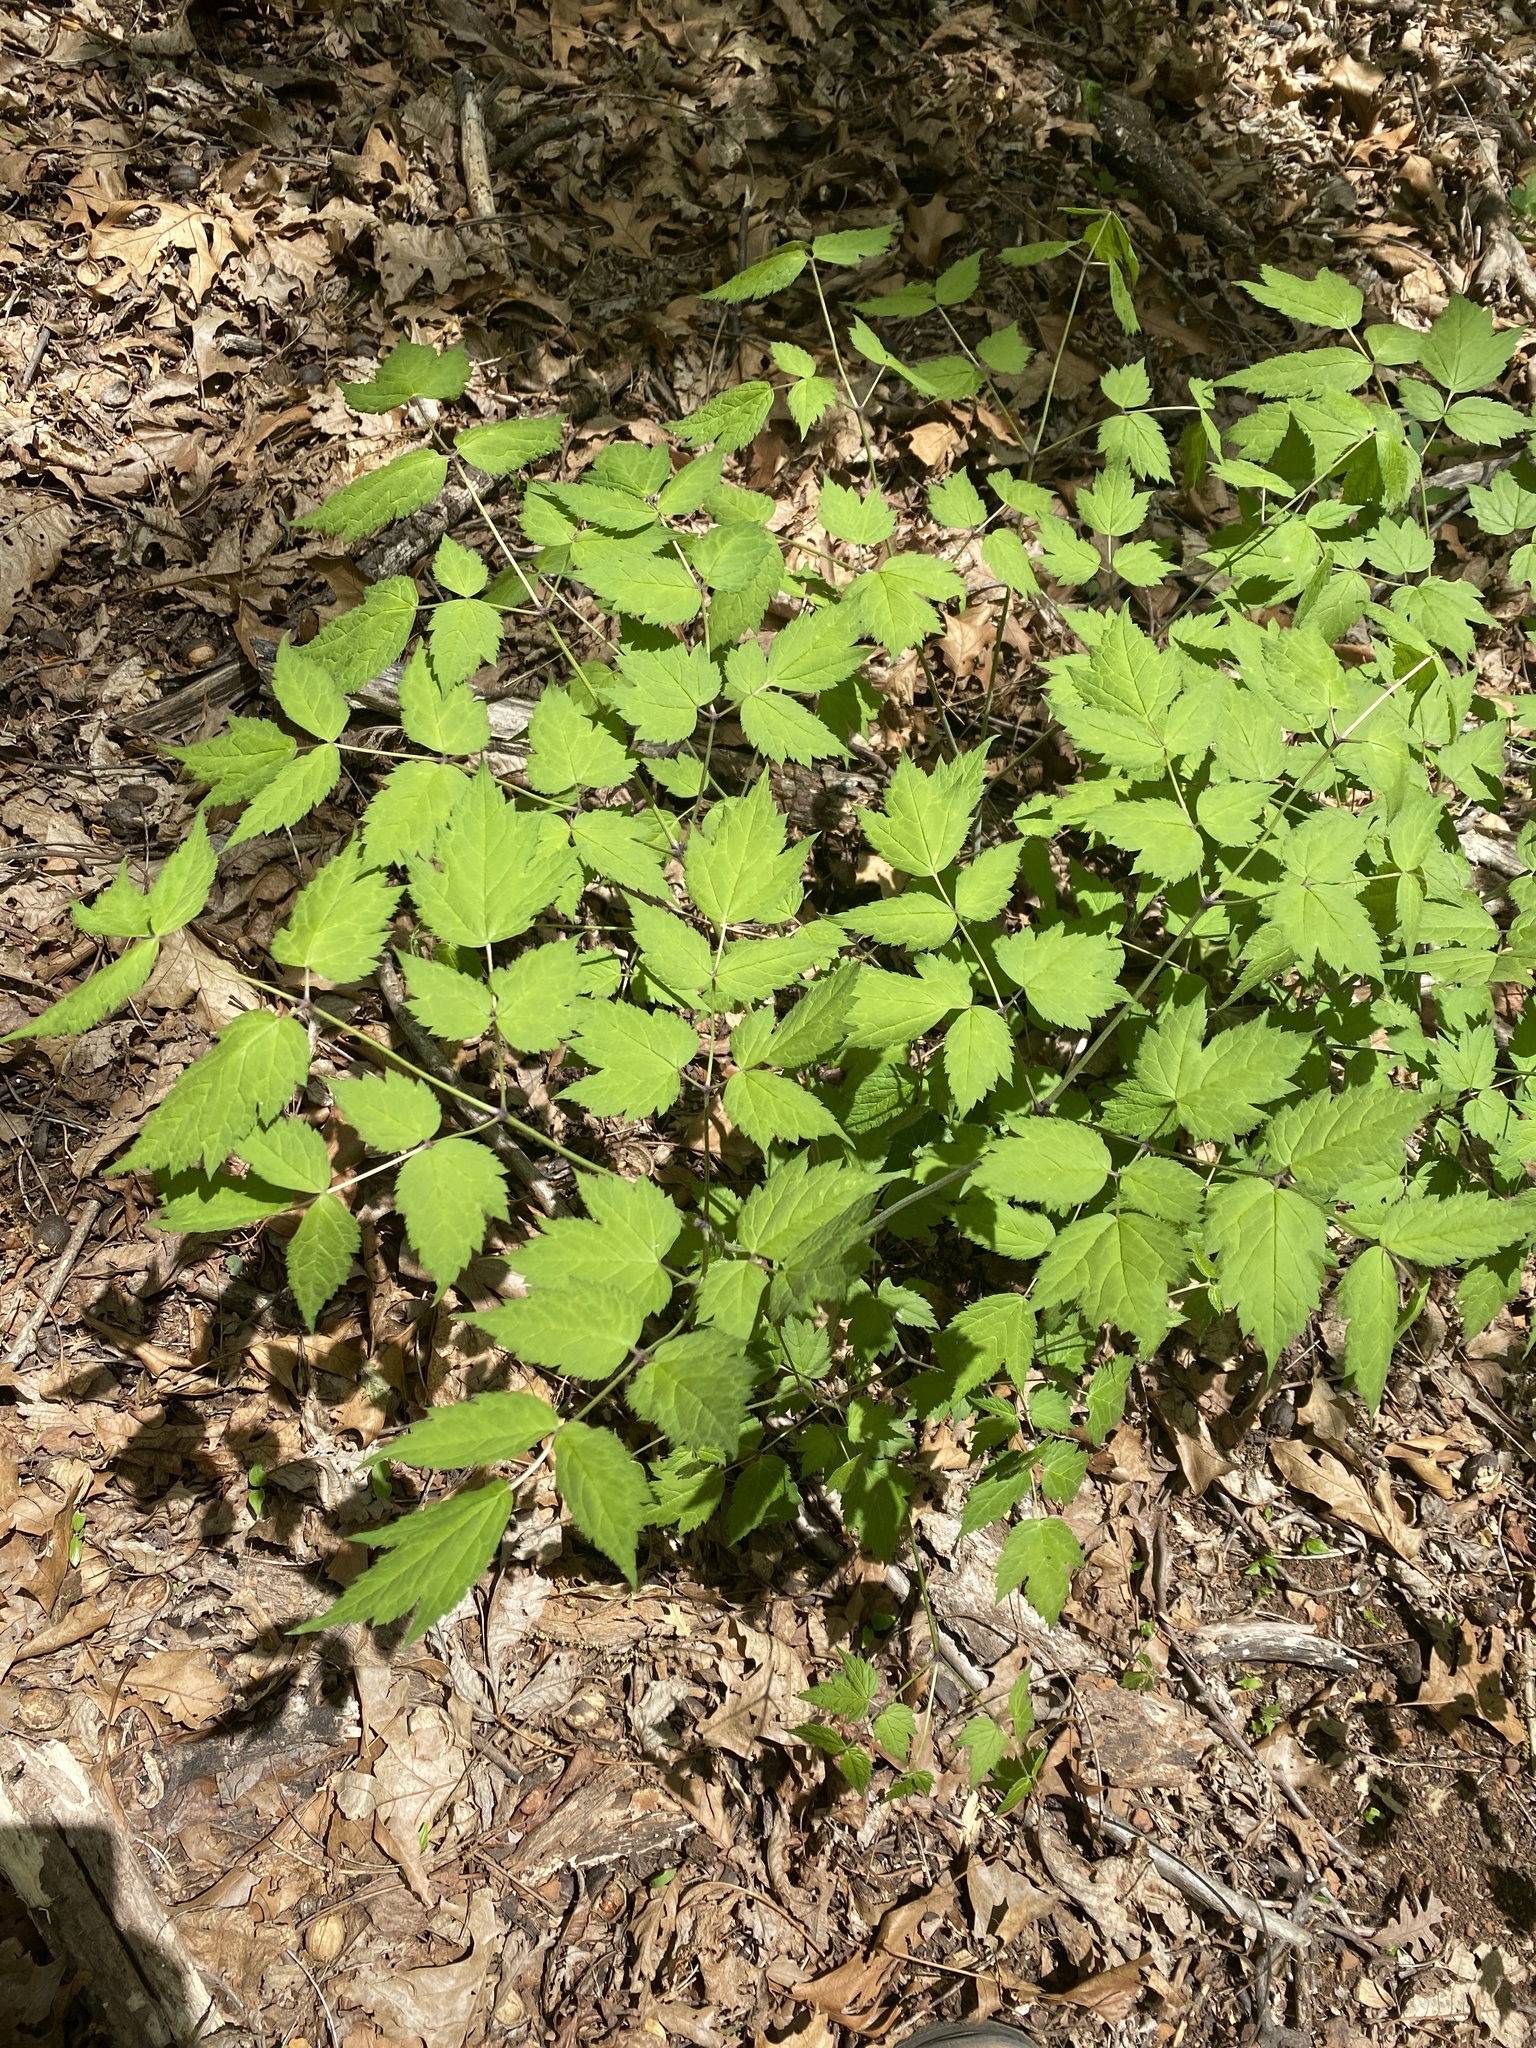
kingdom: Plantae
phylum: Tracheophyta
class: Magnoliopsida
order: Ranunculales
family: Ranunculaceae
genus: Actaea
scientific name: Actaea racemosa
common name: Black cohosh
